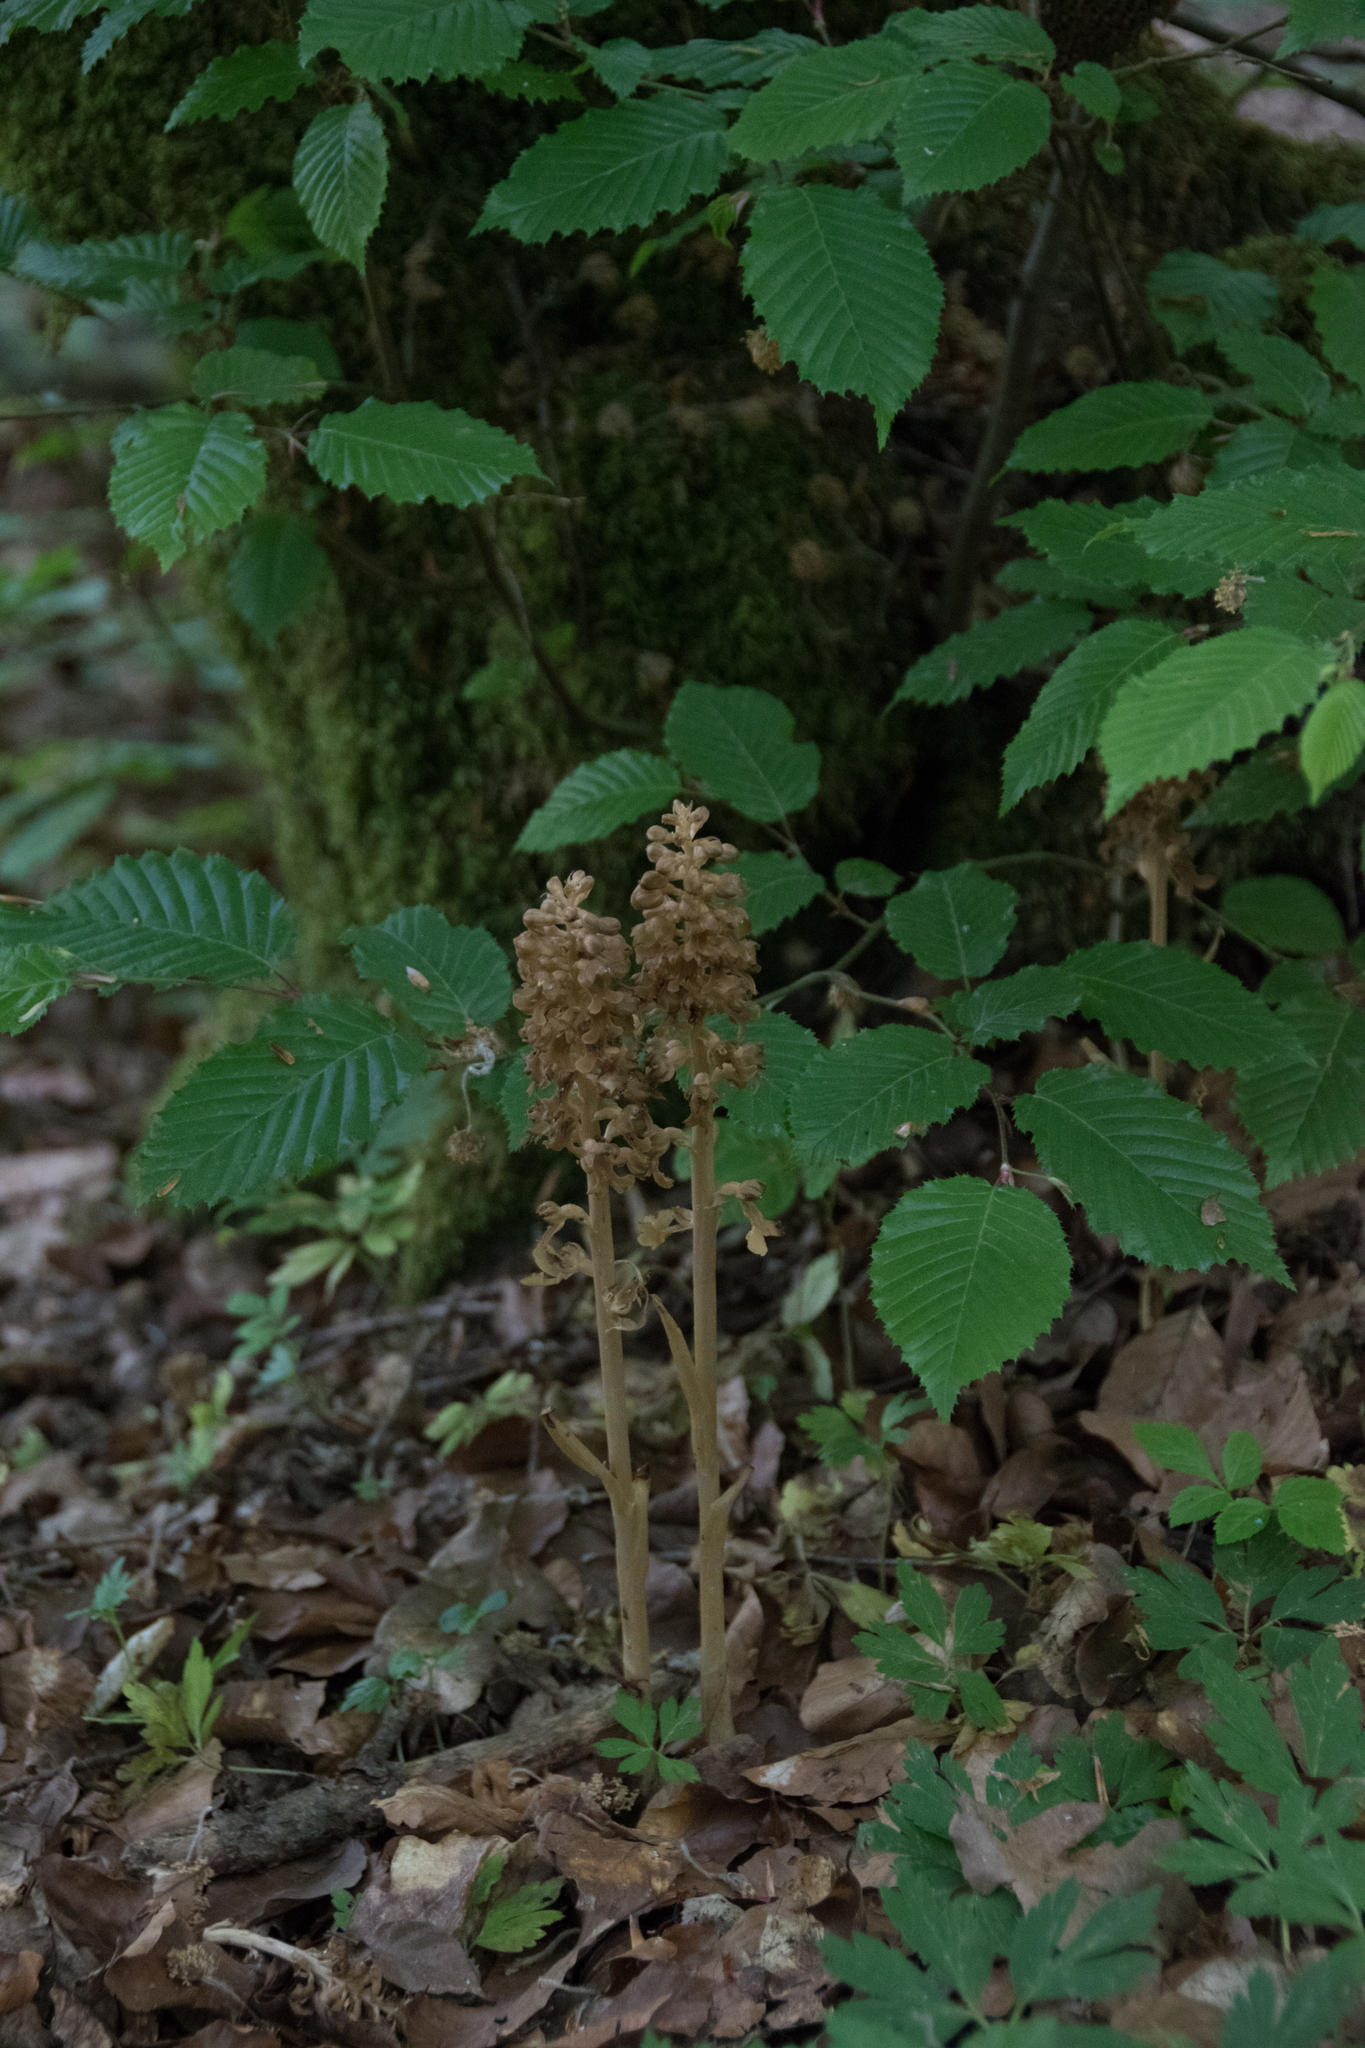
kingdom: Plantae
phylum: Tracheophyta
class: Liliopsida
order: Asparagales
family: Orchidaceae
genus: Neottia
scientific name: Neottia nidus-avis
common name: Bird's-nest orchid
